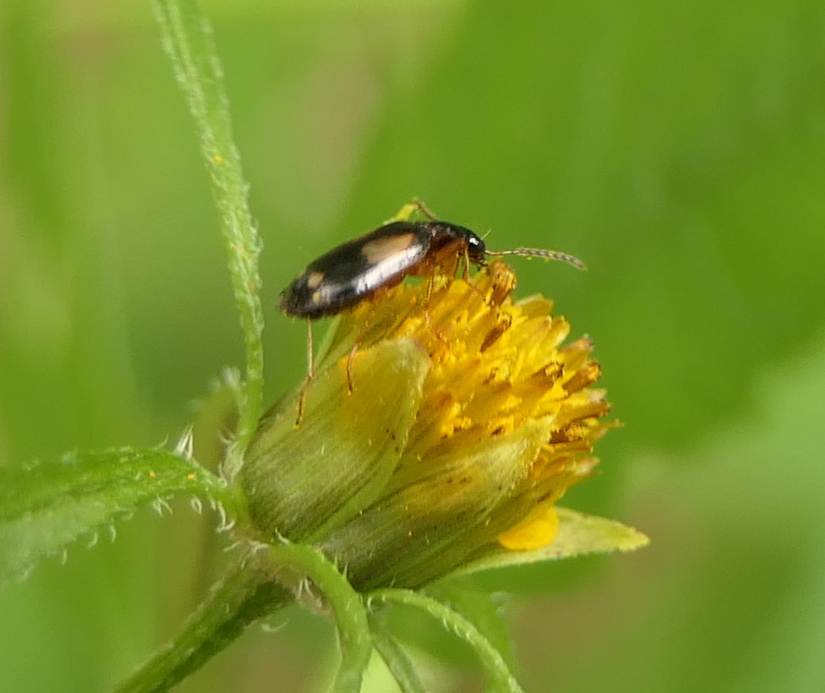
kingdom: Animalia
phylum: Arthropoda
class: Insecta
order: Coleoptera
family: Carabidae
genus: Lebia
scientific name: Lebia ornata
